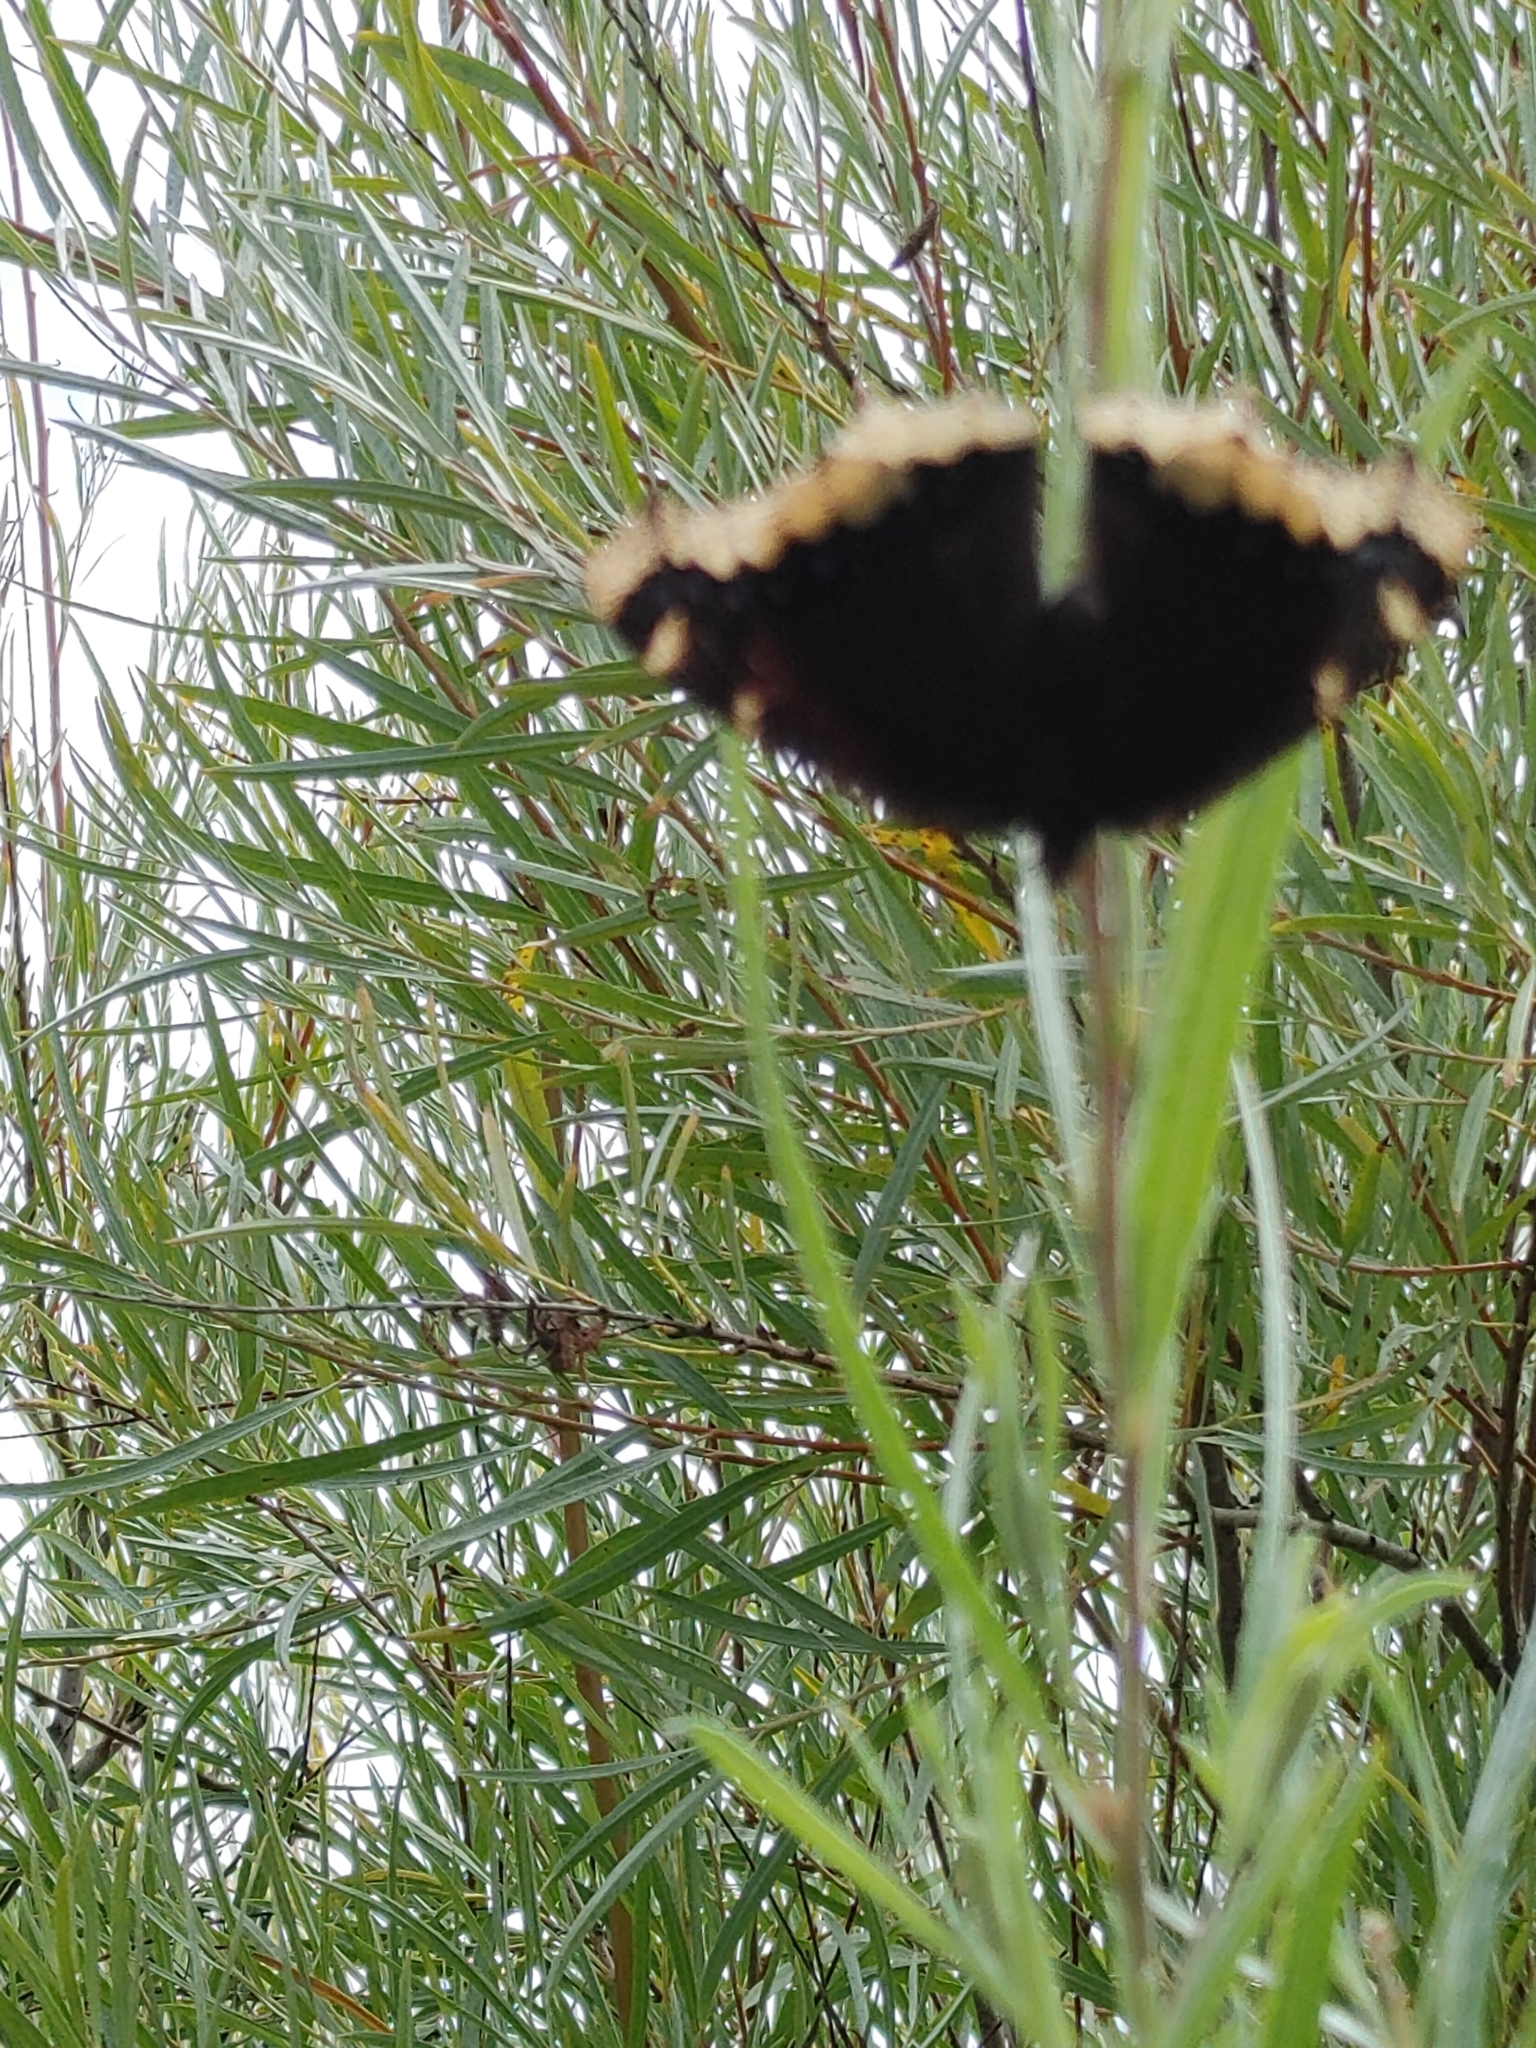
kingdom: Animalia
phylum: Arthropoda
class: Insecta
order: Lepidoptera
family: Nymphalidae
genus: Nymphalis
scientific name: Nymphalis antiopa
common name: Camberwell beauty
